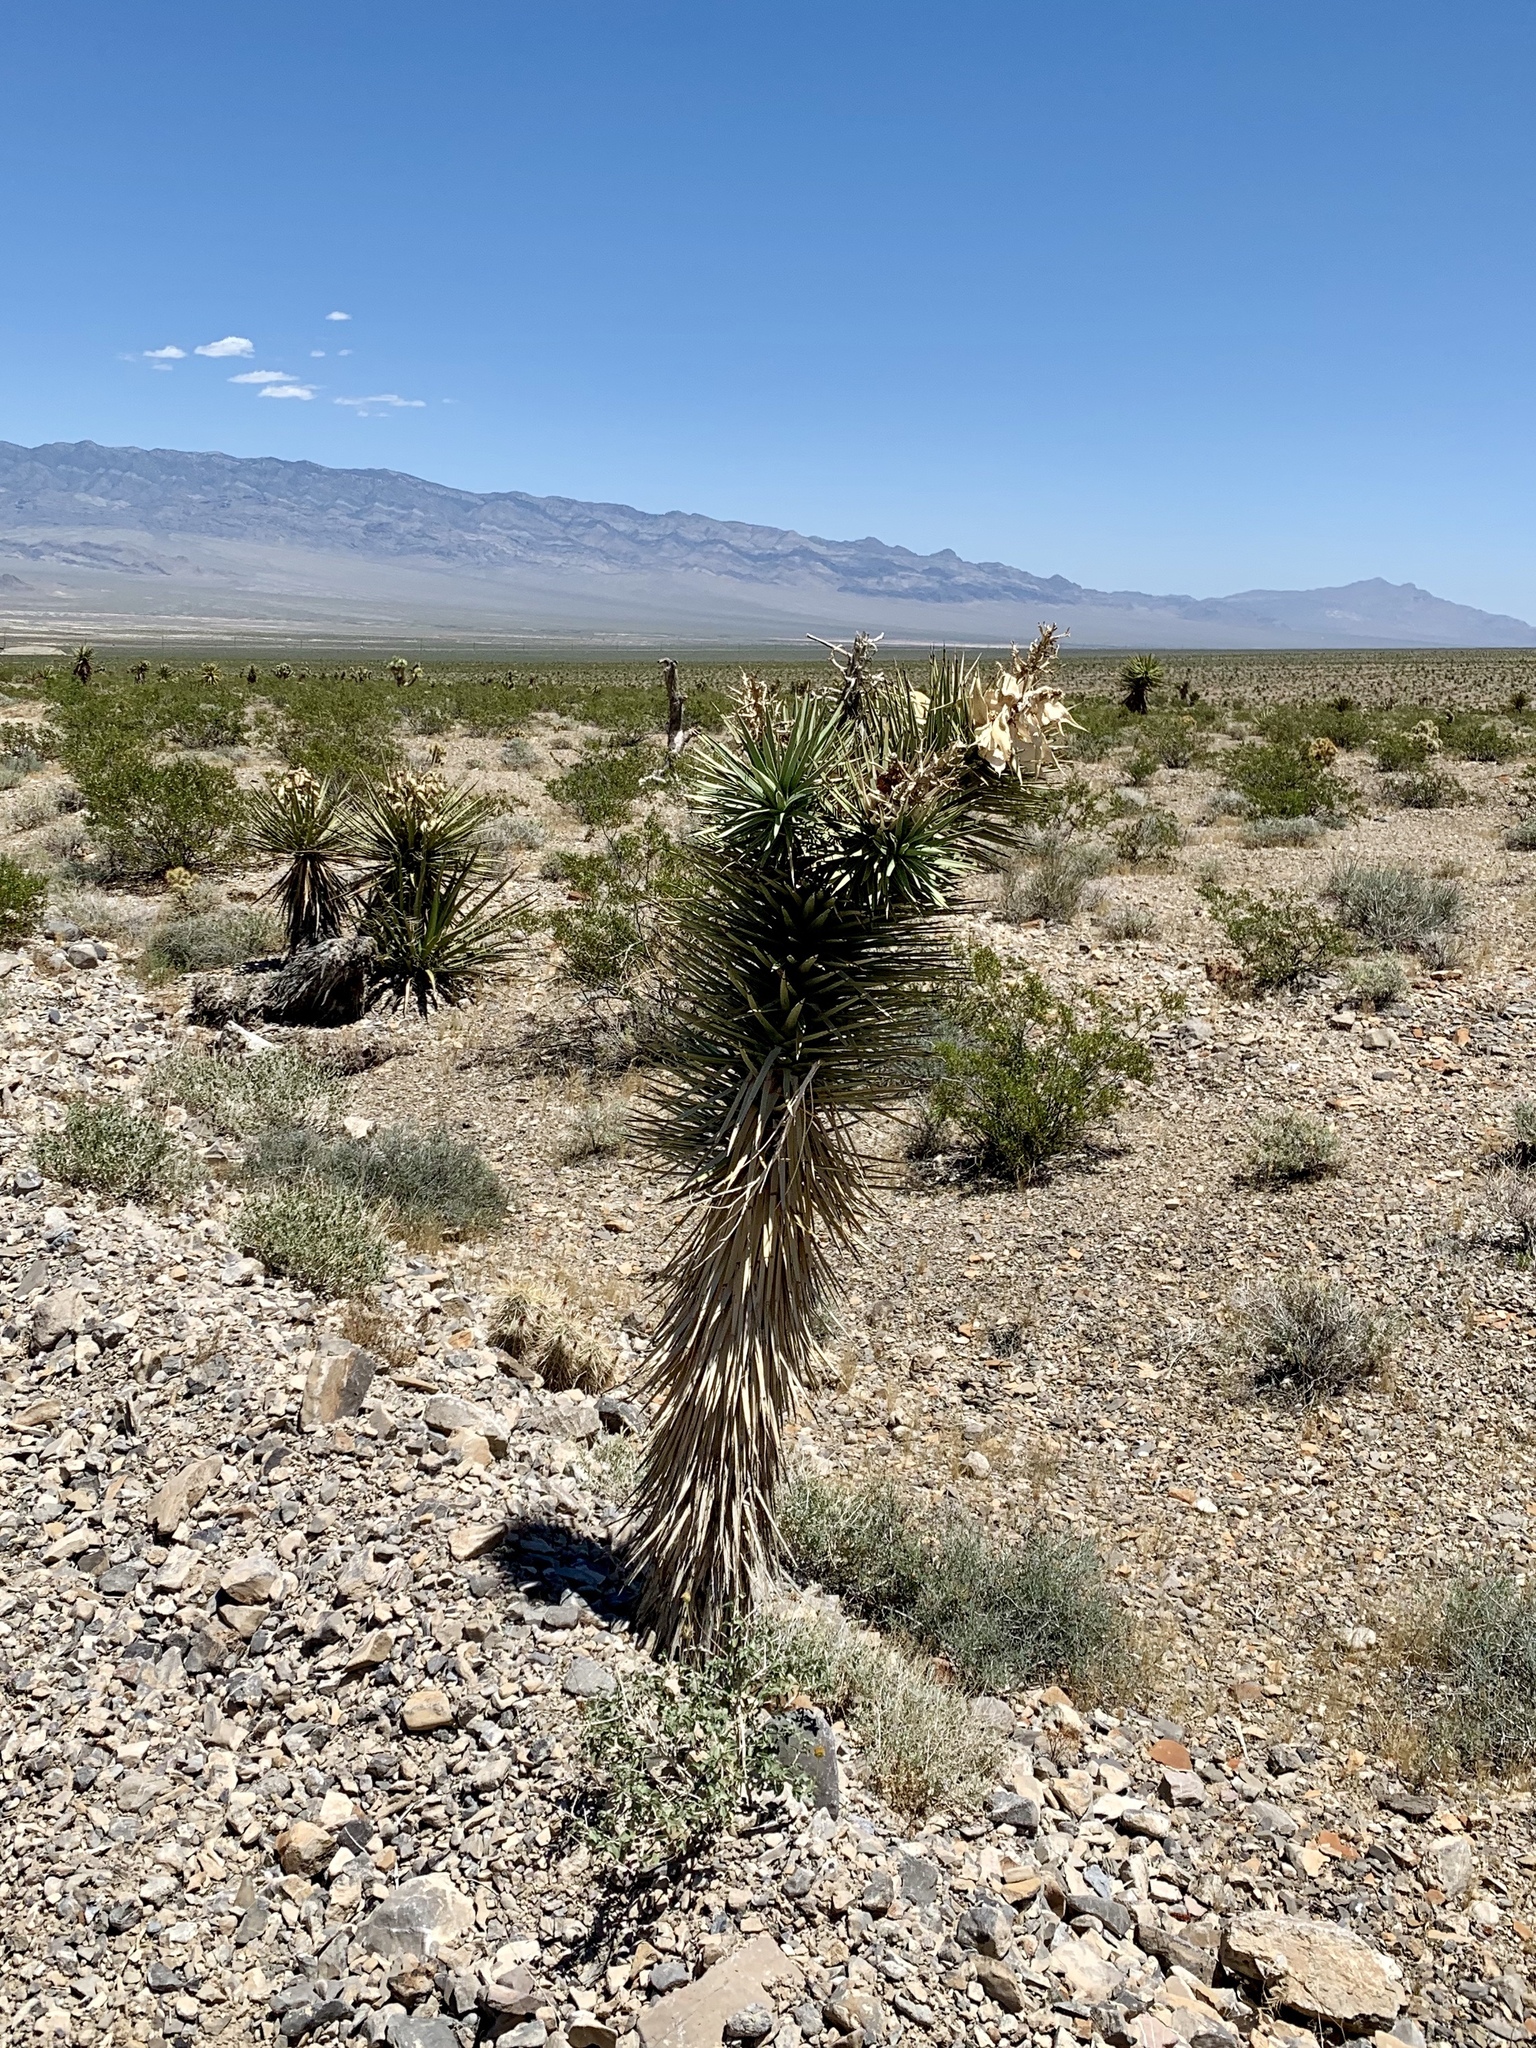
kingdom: Plantae
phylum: Tracheophyta
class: Liliopsida
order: Asparagales
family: Asparagaceae
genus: Yucca
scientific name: Yucca brevifolia
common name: Joshua tree
